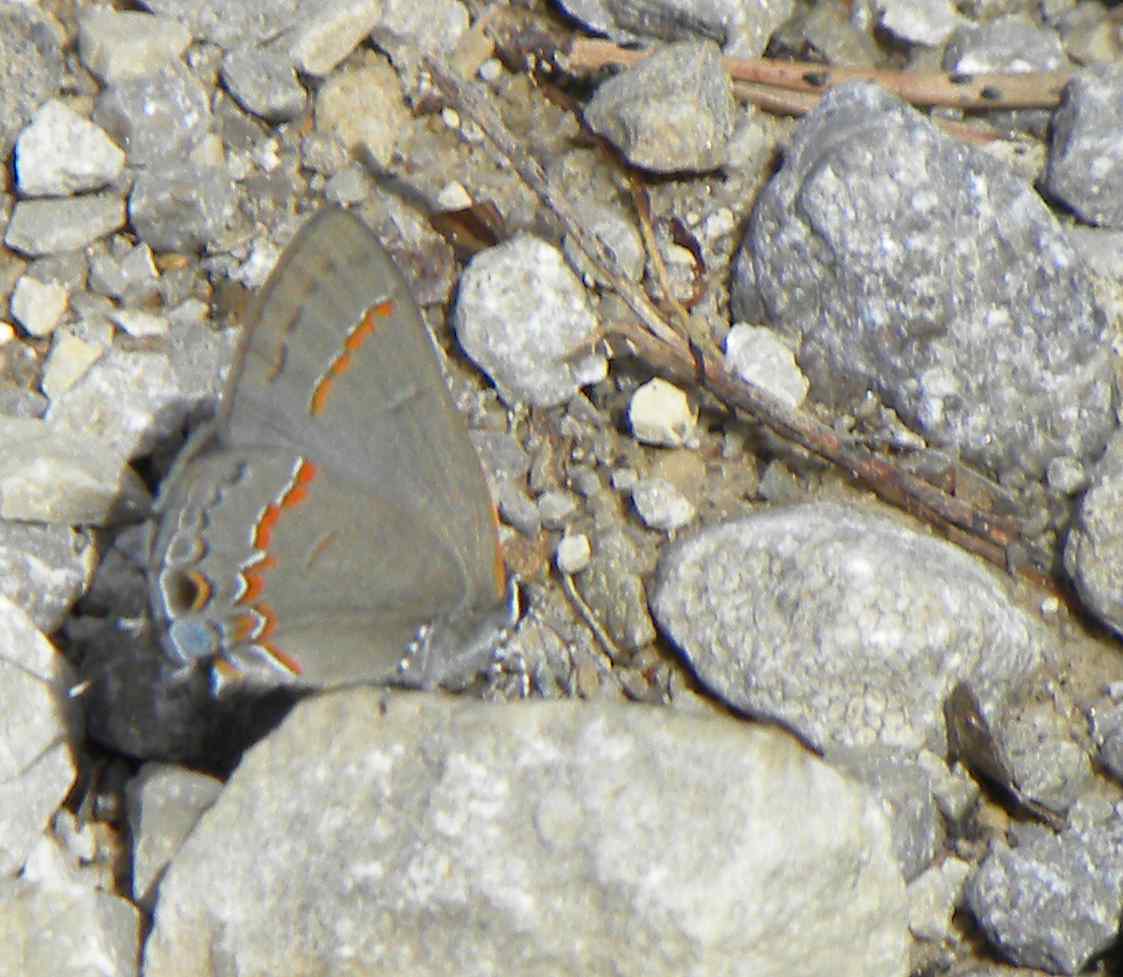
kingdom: Animalia
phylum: Arthropoda
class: Insecta
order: Lepidoptera
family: Lycaenidae
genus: Calycopis
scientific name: Calycopis cecrops
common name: Red-banded hairstreak
